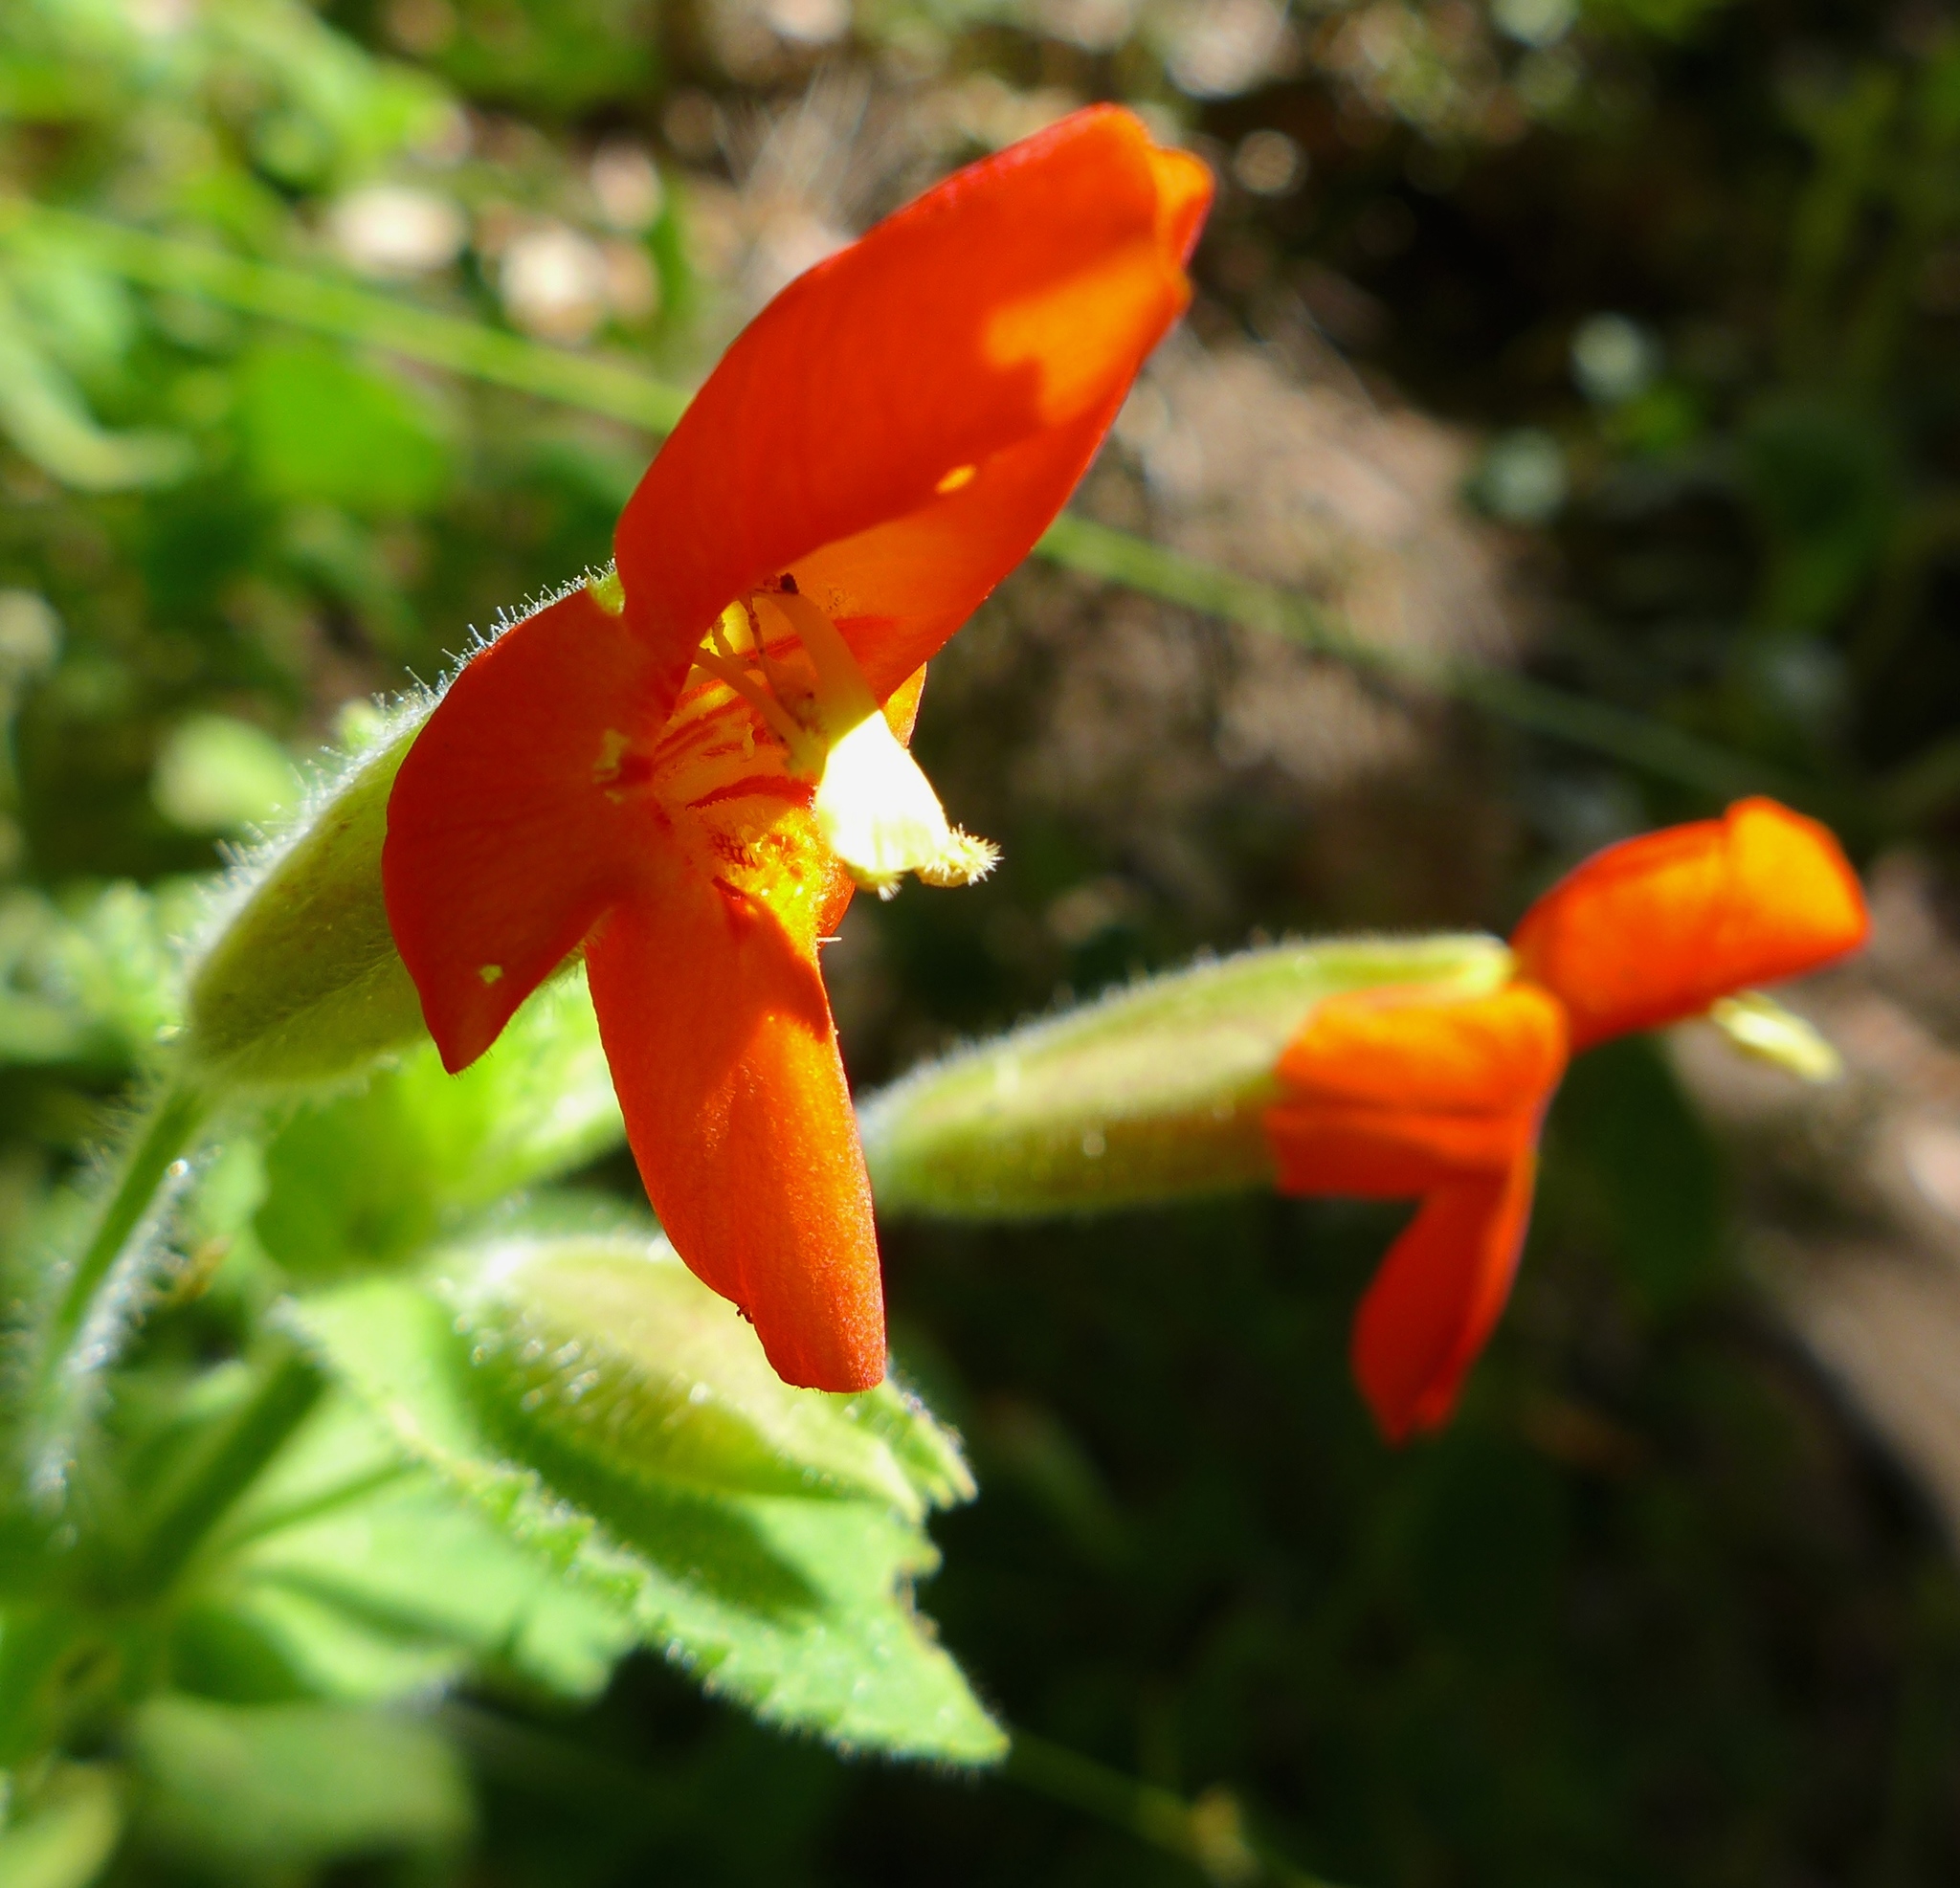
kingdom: Plantae
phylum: Tracheophyta
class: Magnoliopsida
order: Lamiales
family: Phrymaceae
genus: Erythranthe
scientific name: Erythranthe cardinalis
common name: Scarlet monkey-flower
